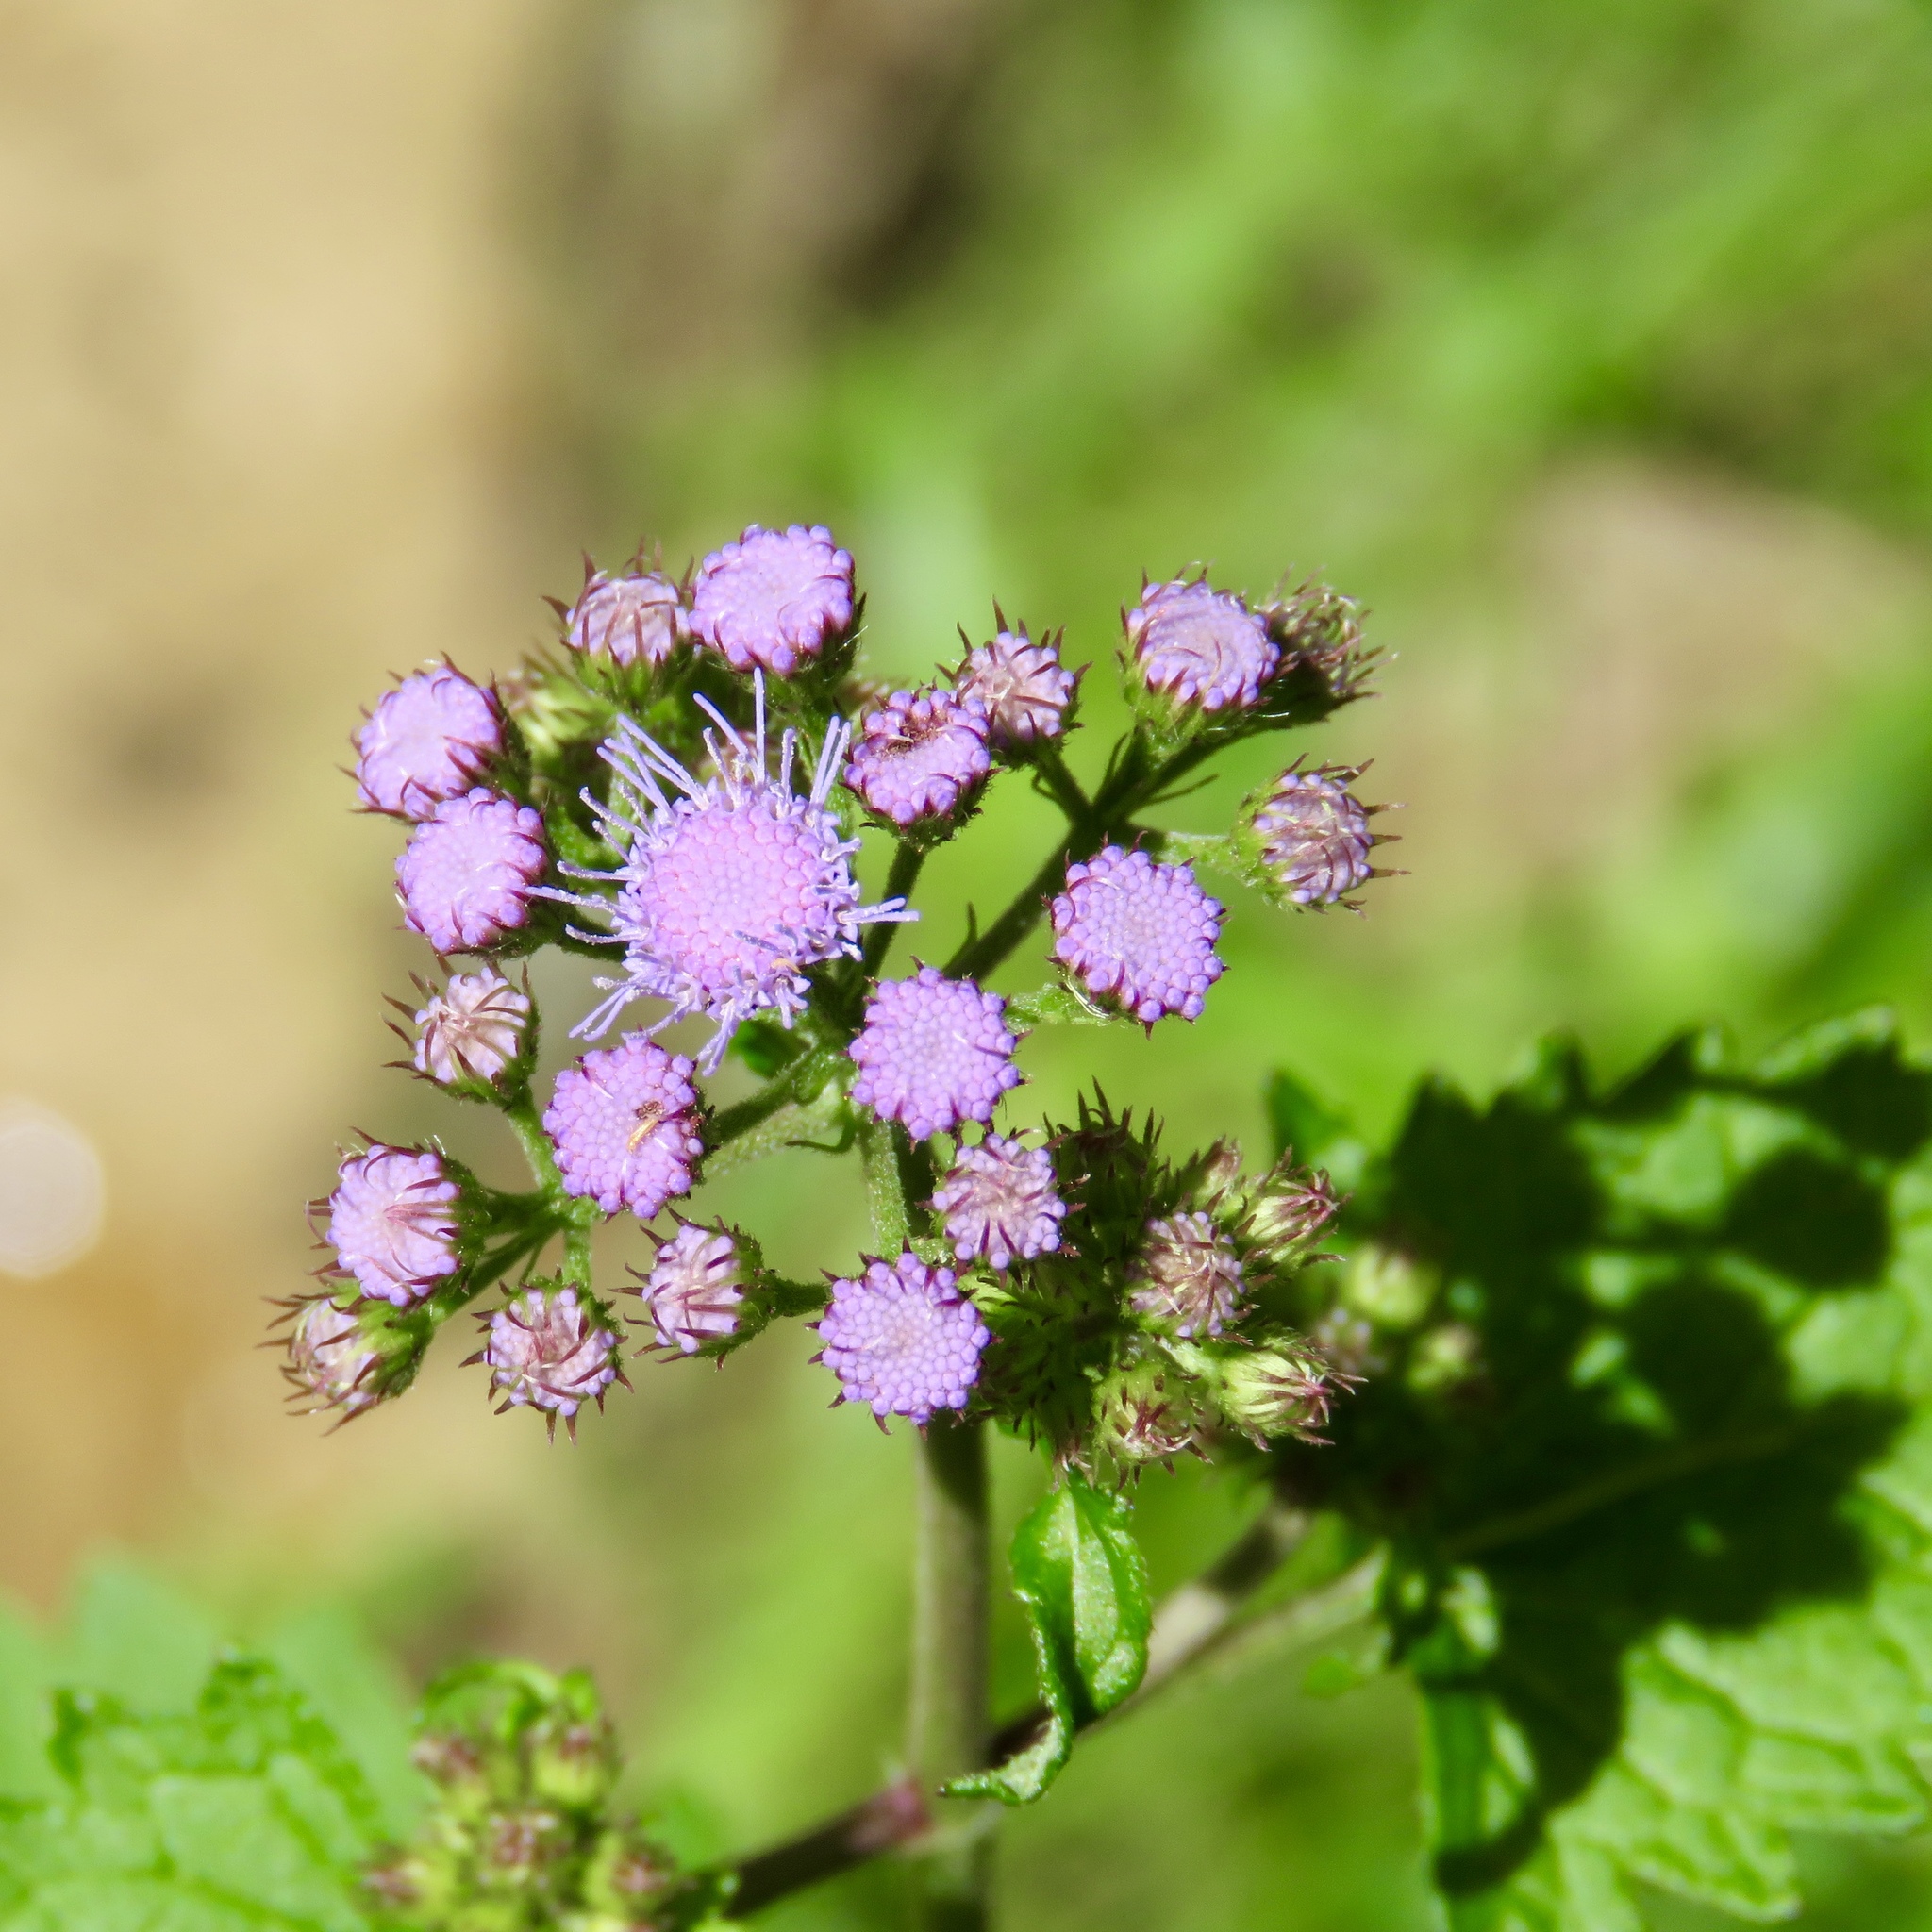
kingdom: Plantae
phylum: Tracheophyta
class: Magnoliopsida
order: Asterales
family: Asteraceae
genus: Conoclinium
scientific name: Conoclinium coelestinum
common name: Blue mistflower
